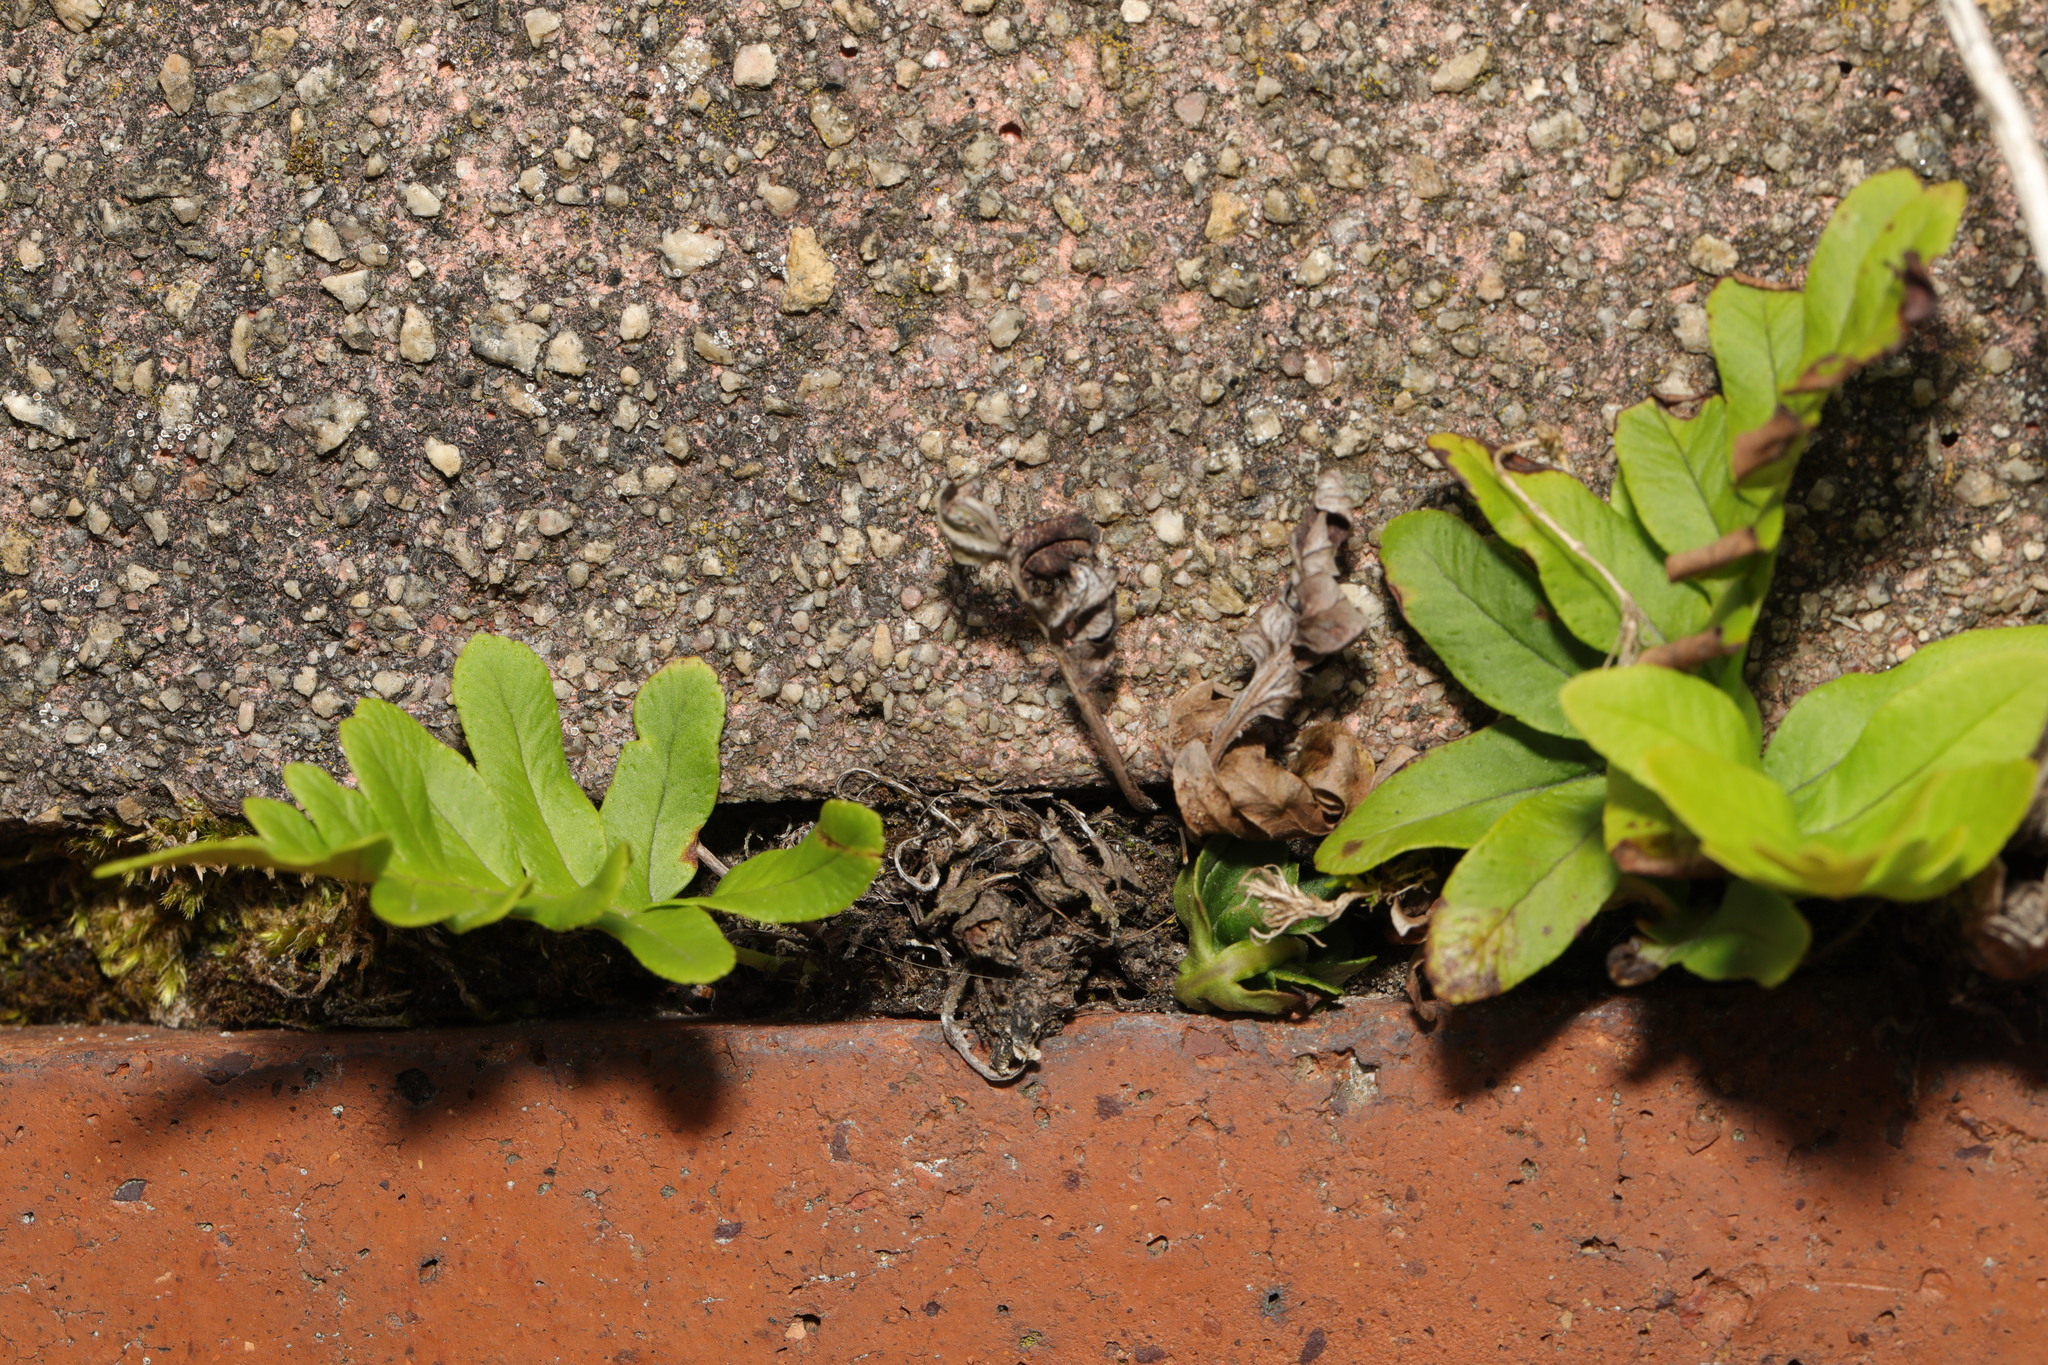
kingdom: Plantae
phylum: Tracheophyta
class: Polypodiopsida
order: Polypodiales
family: Polypodiaceae
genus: Polypodium
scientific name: Polypodium vulgare
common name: Common polypody
